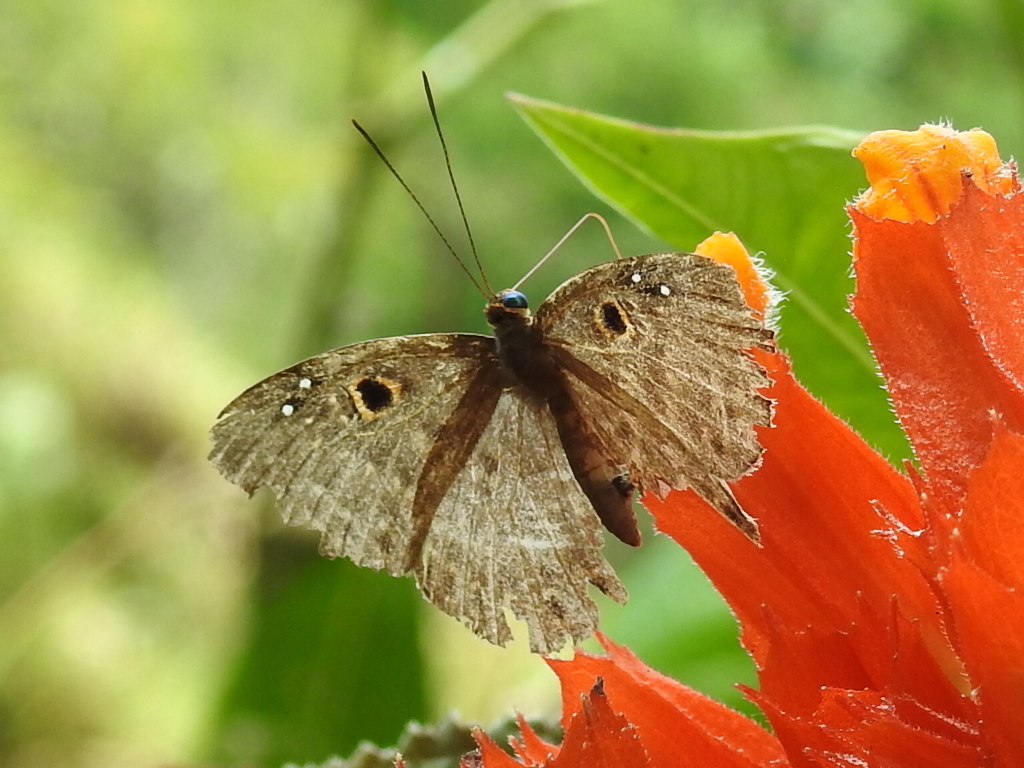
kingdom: Animalia
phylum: Cnidaria
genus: Eurybia
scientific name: Eurybia dardus
